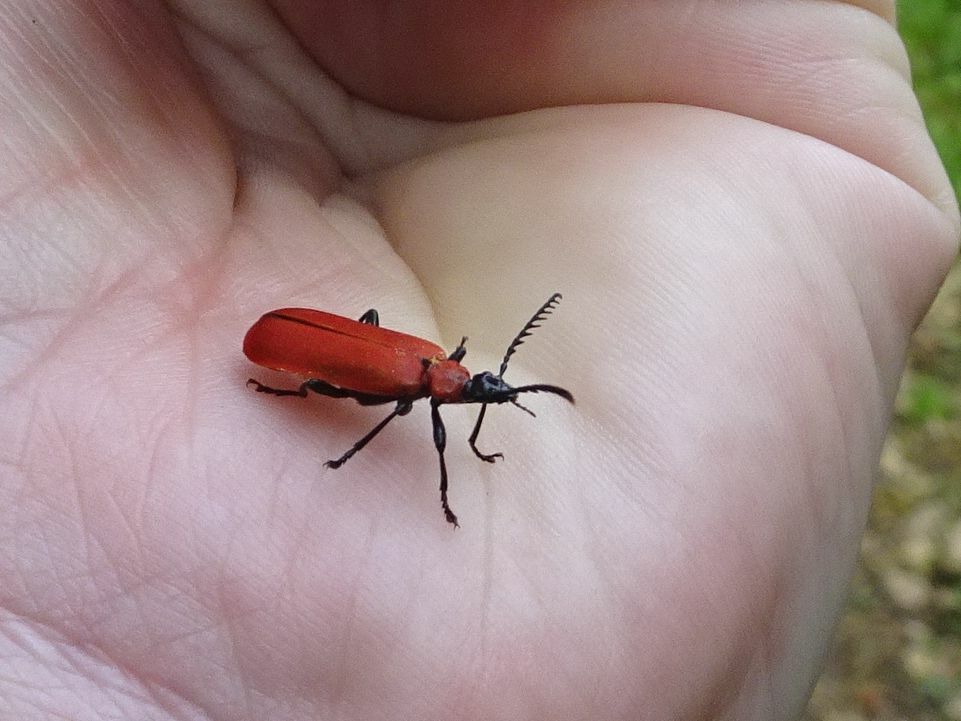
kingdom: Animalia
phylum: Arthropoda
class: Insecta
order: Coleoptera
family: Pyrochroidae
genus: Pyrochroa
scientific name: Pyrochroa coccinea
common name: Black-headed cardinal beetle
